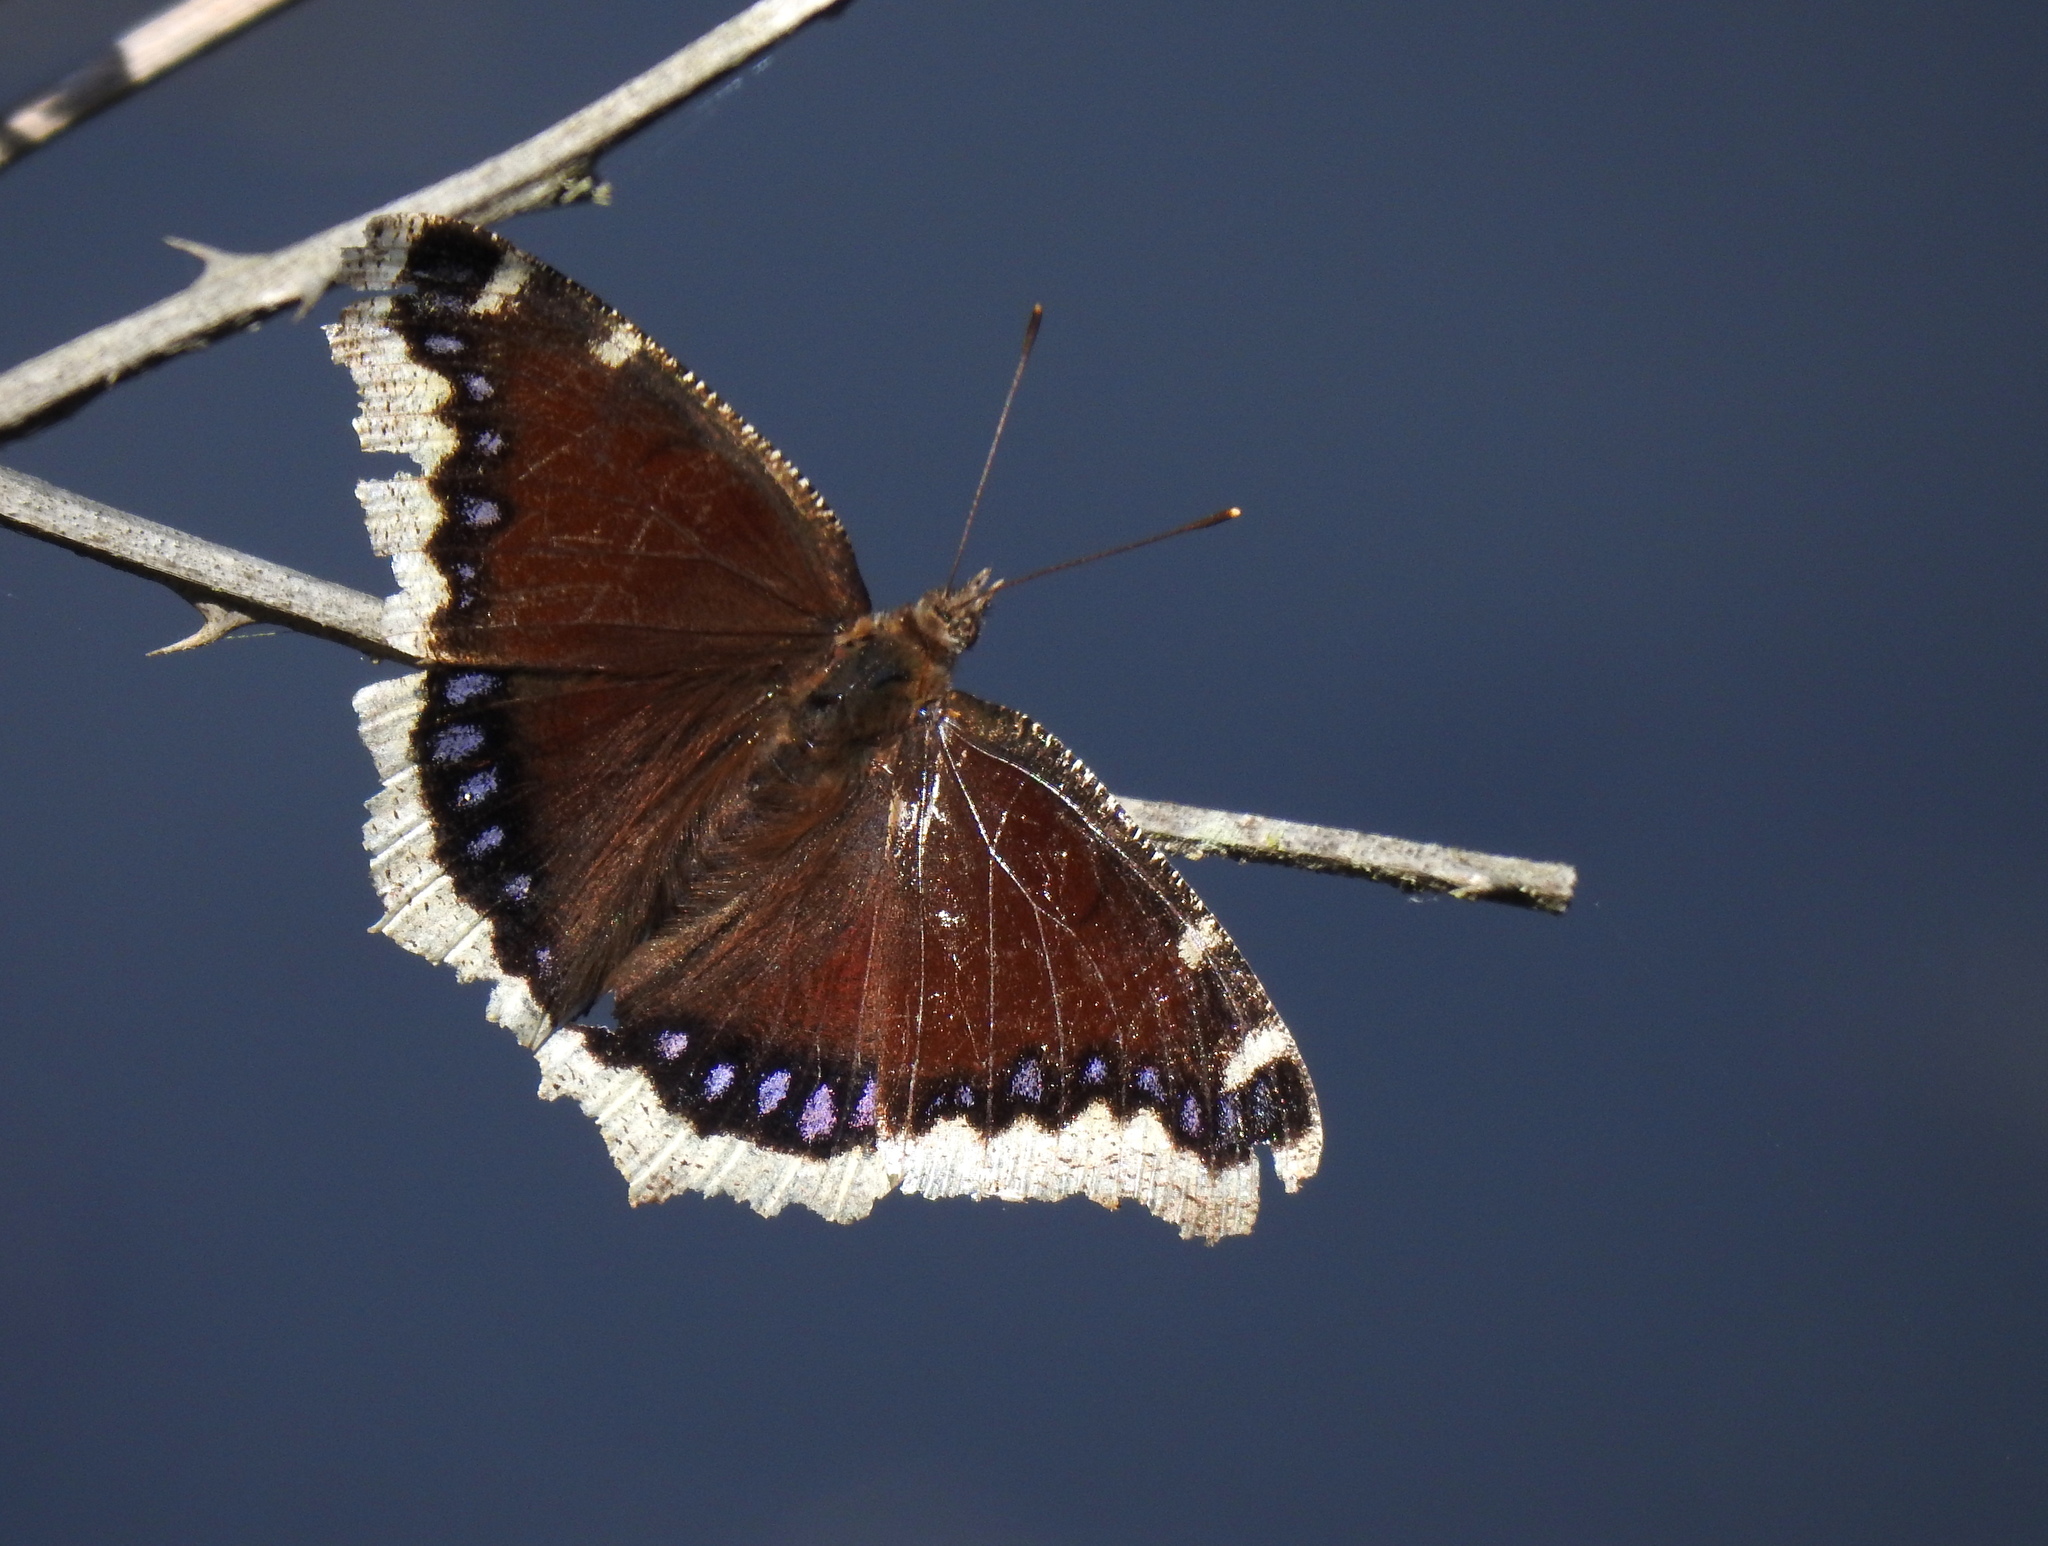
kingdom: Animalia
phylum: Arthropoda
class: Insecta
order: Lepidoptera
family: Nymphalidae
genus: Nymphalis
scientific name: Nymphalis antiopa
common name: Camberwell beauty
